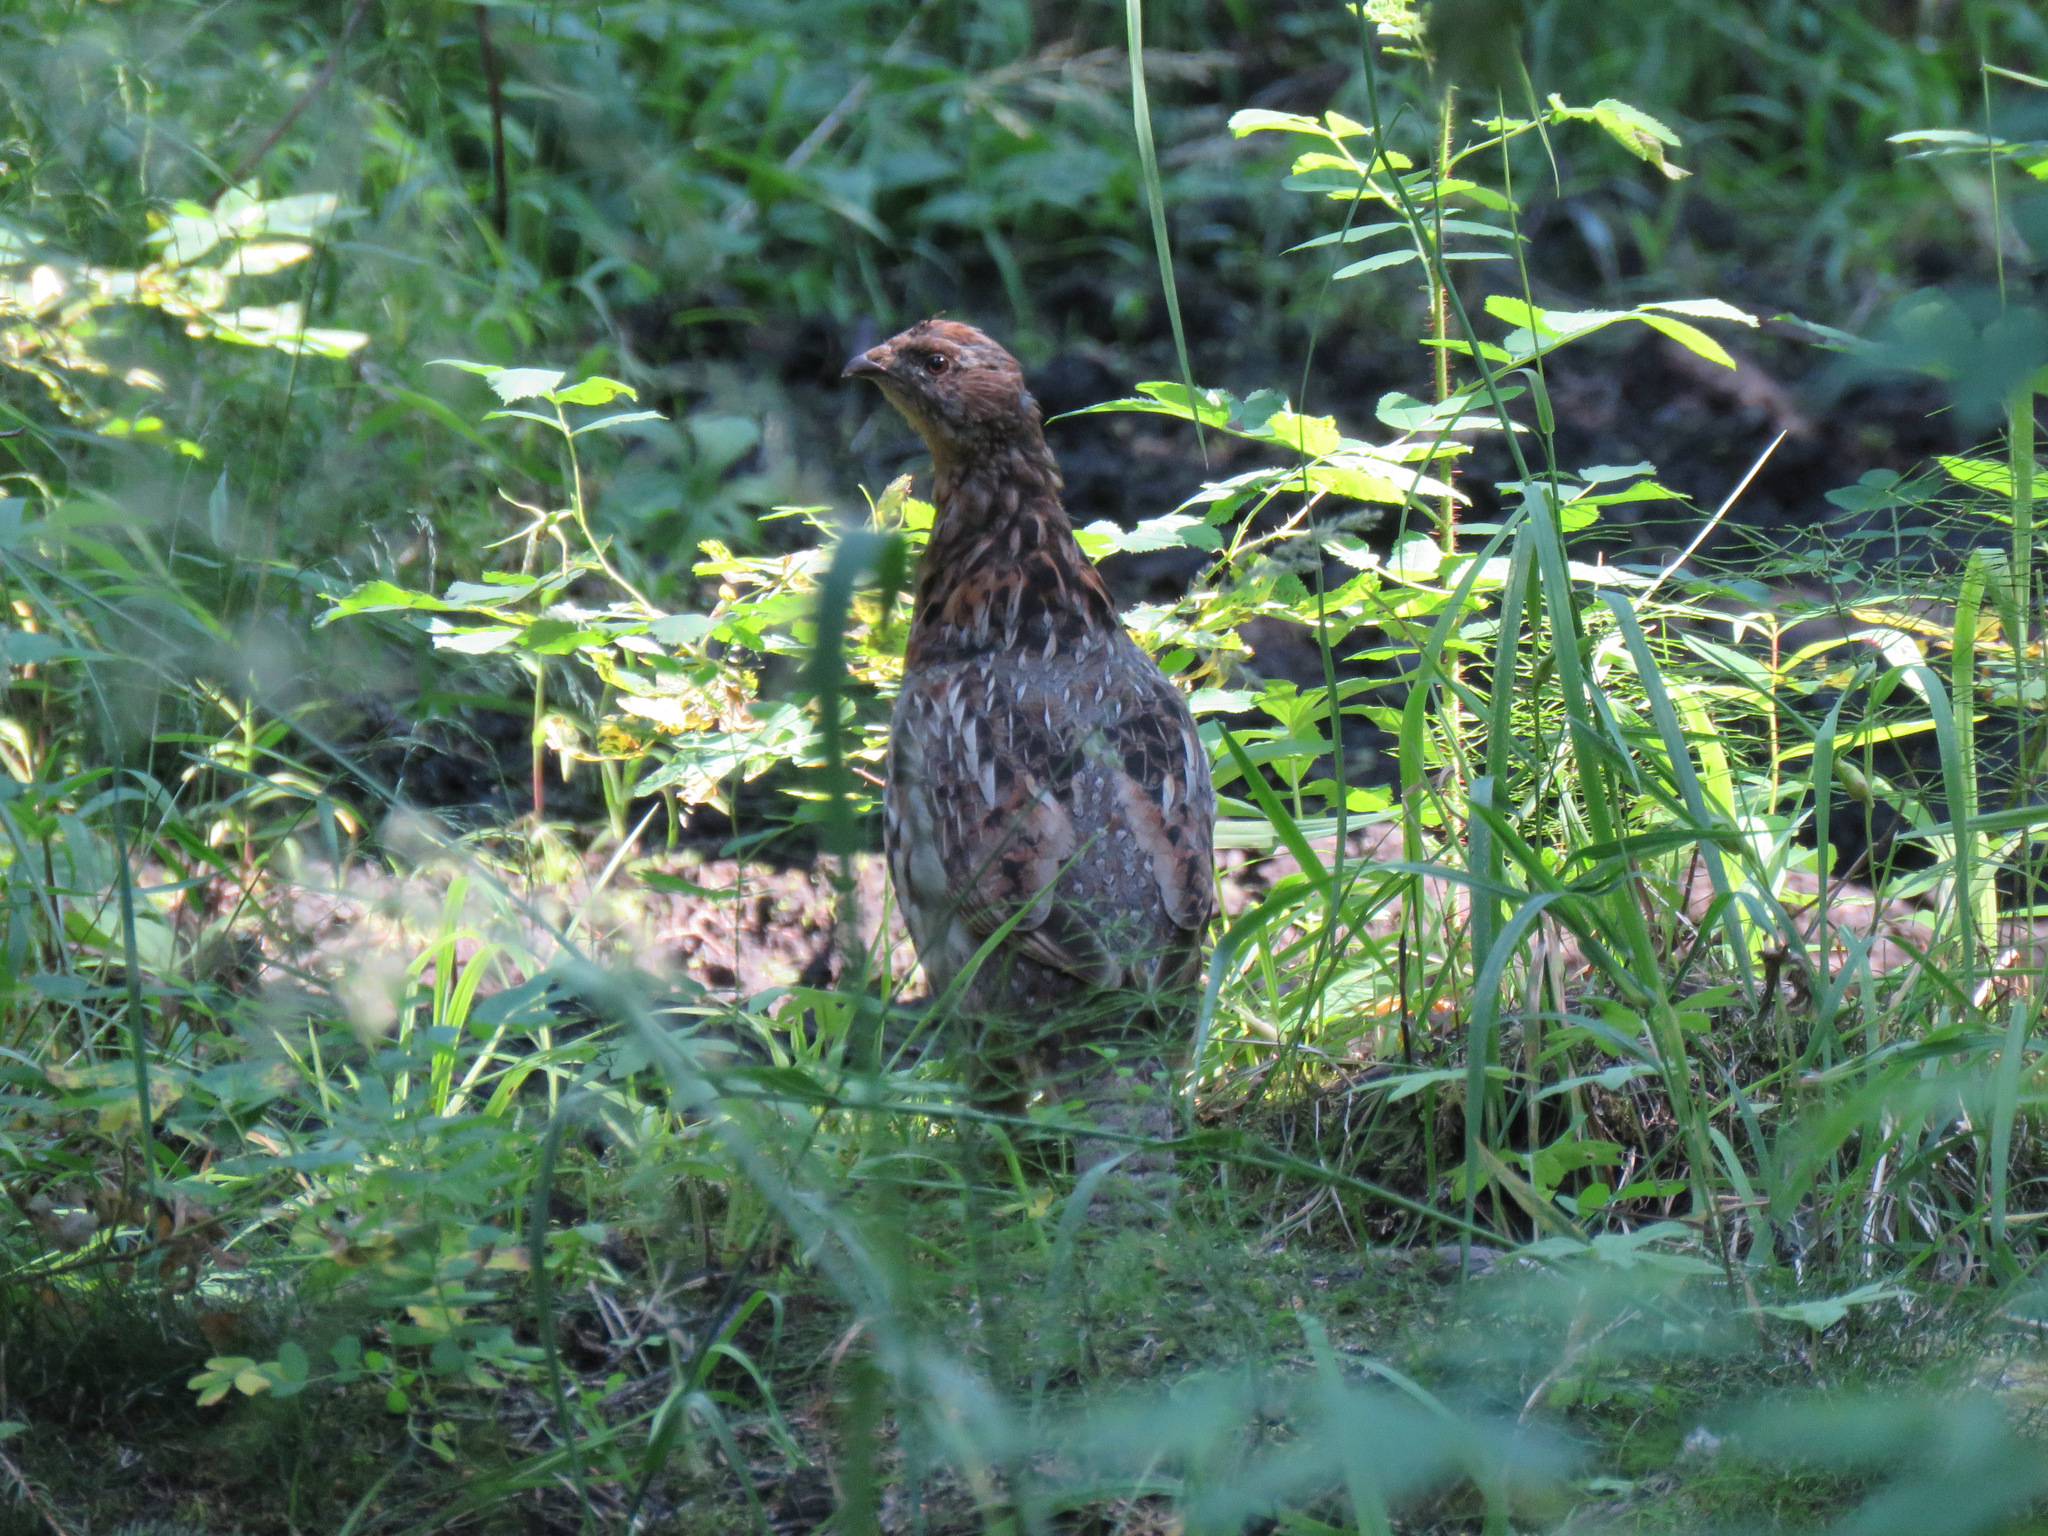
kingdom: Animalia
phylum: Chordata
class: Aves
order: Galliformes
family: Phasianidae
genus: Bonasa
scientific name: Bonasa umbellus
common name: Ruffed grouse
